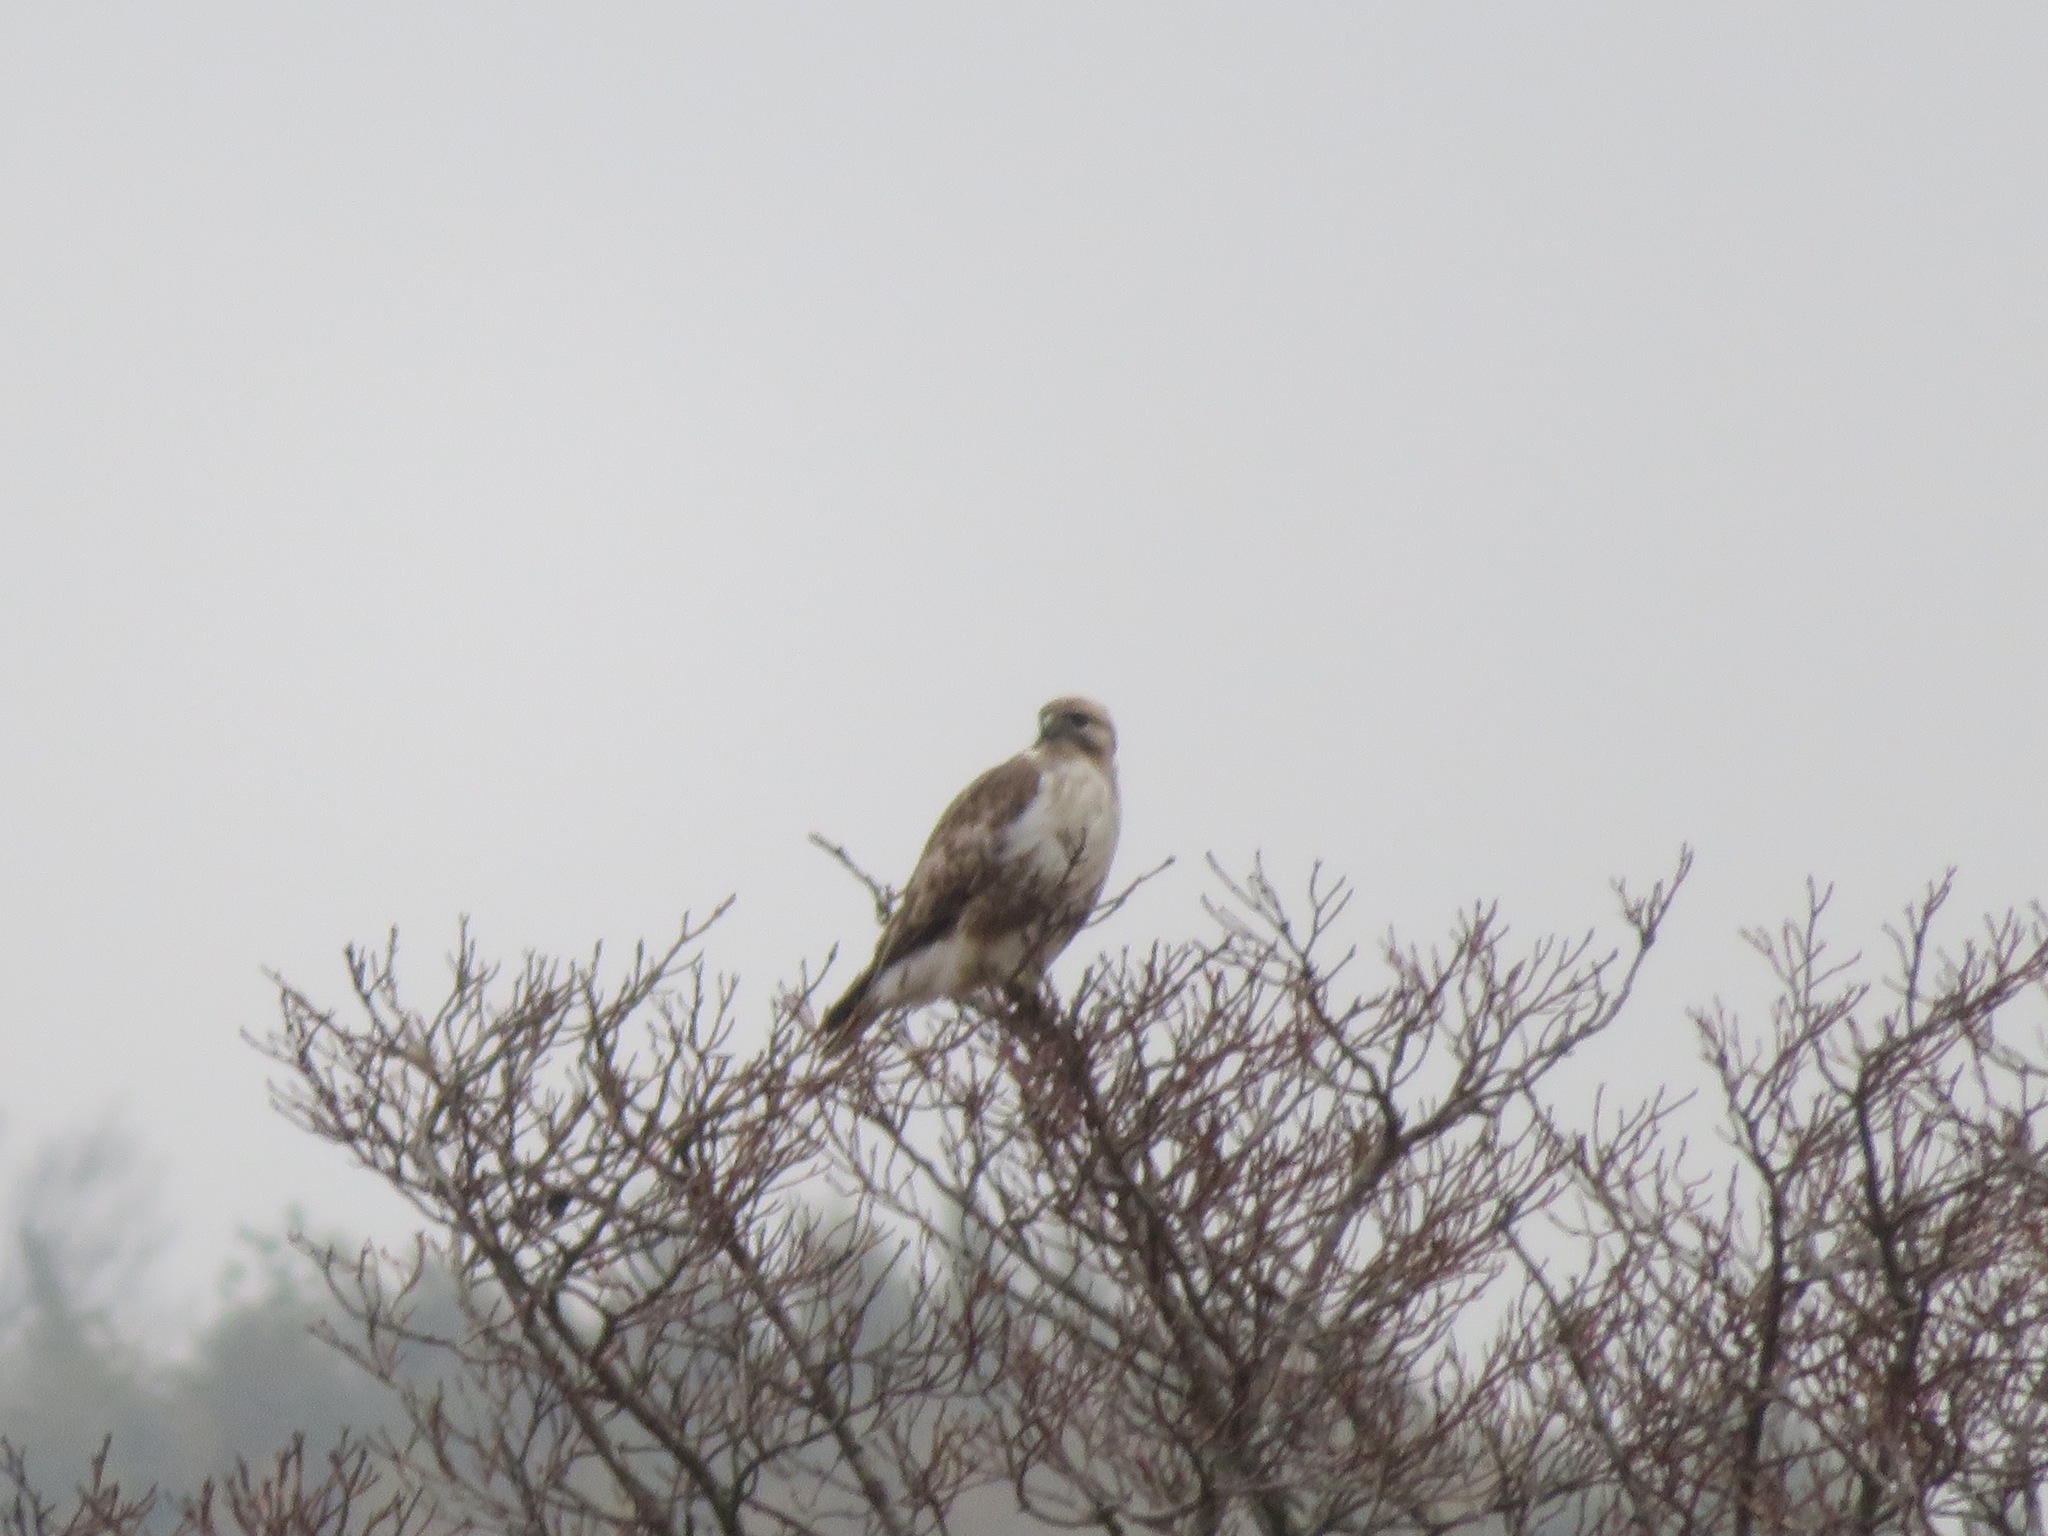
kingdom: Animalia
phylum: Chordata
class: Aves
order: Accipitriformes
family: Accipitridae
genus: Buteo
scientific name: Buteo japonicus
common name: Eastern buzzard
